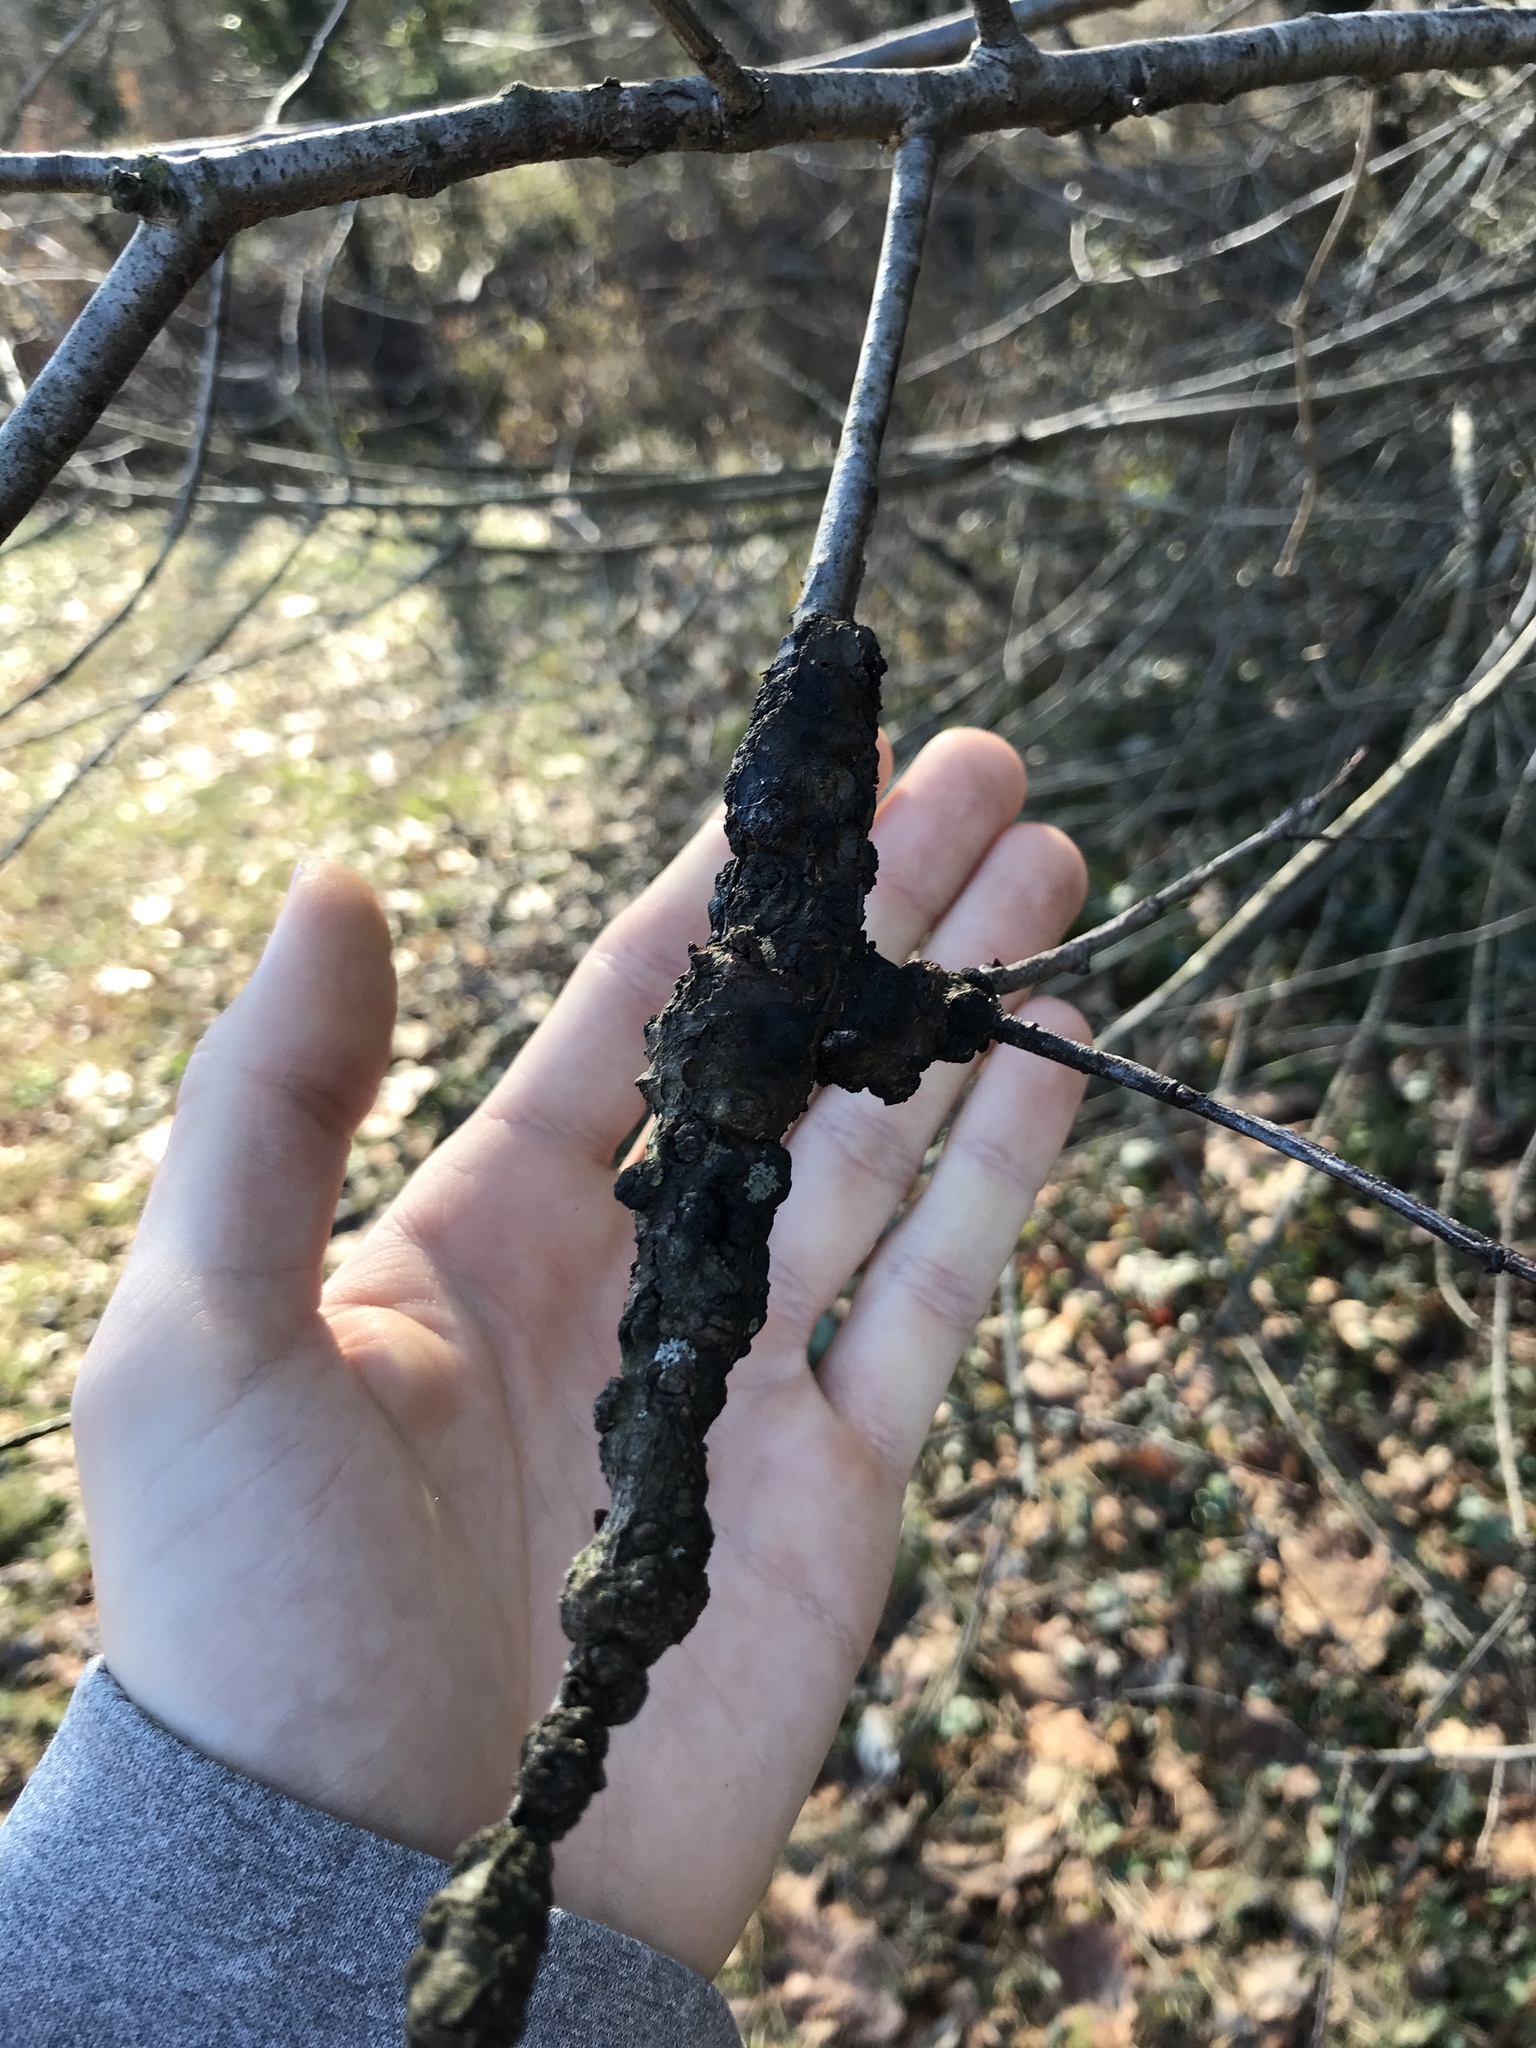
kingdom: Fungi
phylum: Ascomycota
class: Dothideomycetes
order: Venturiales
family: Venturiaceae
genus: Apiosporina
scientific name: Apiosporina morbosa
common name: Black knot
